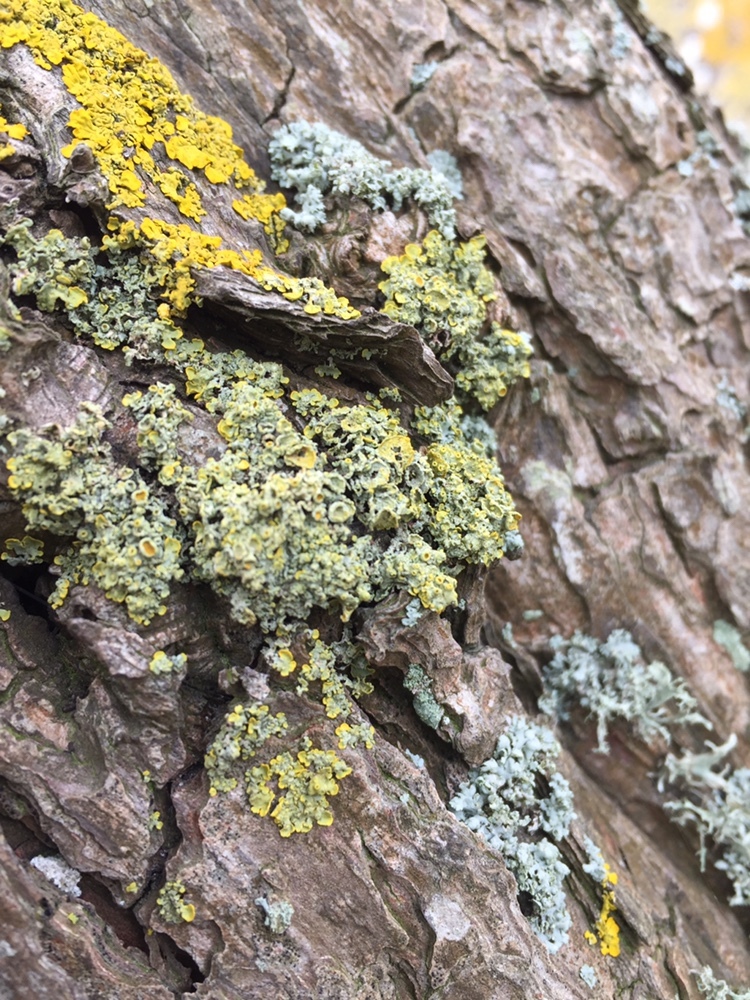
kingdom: Fungi
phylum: Ascomycota
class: Lecanoromycetes
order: Teloschistales
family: Teloschistaceae
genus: Xanthoria
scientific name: Xanthoria parietina
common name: Common orange lichen
